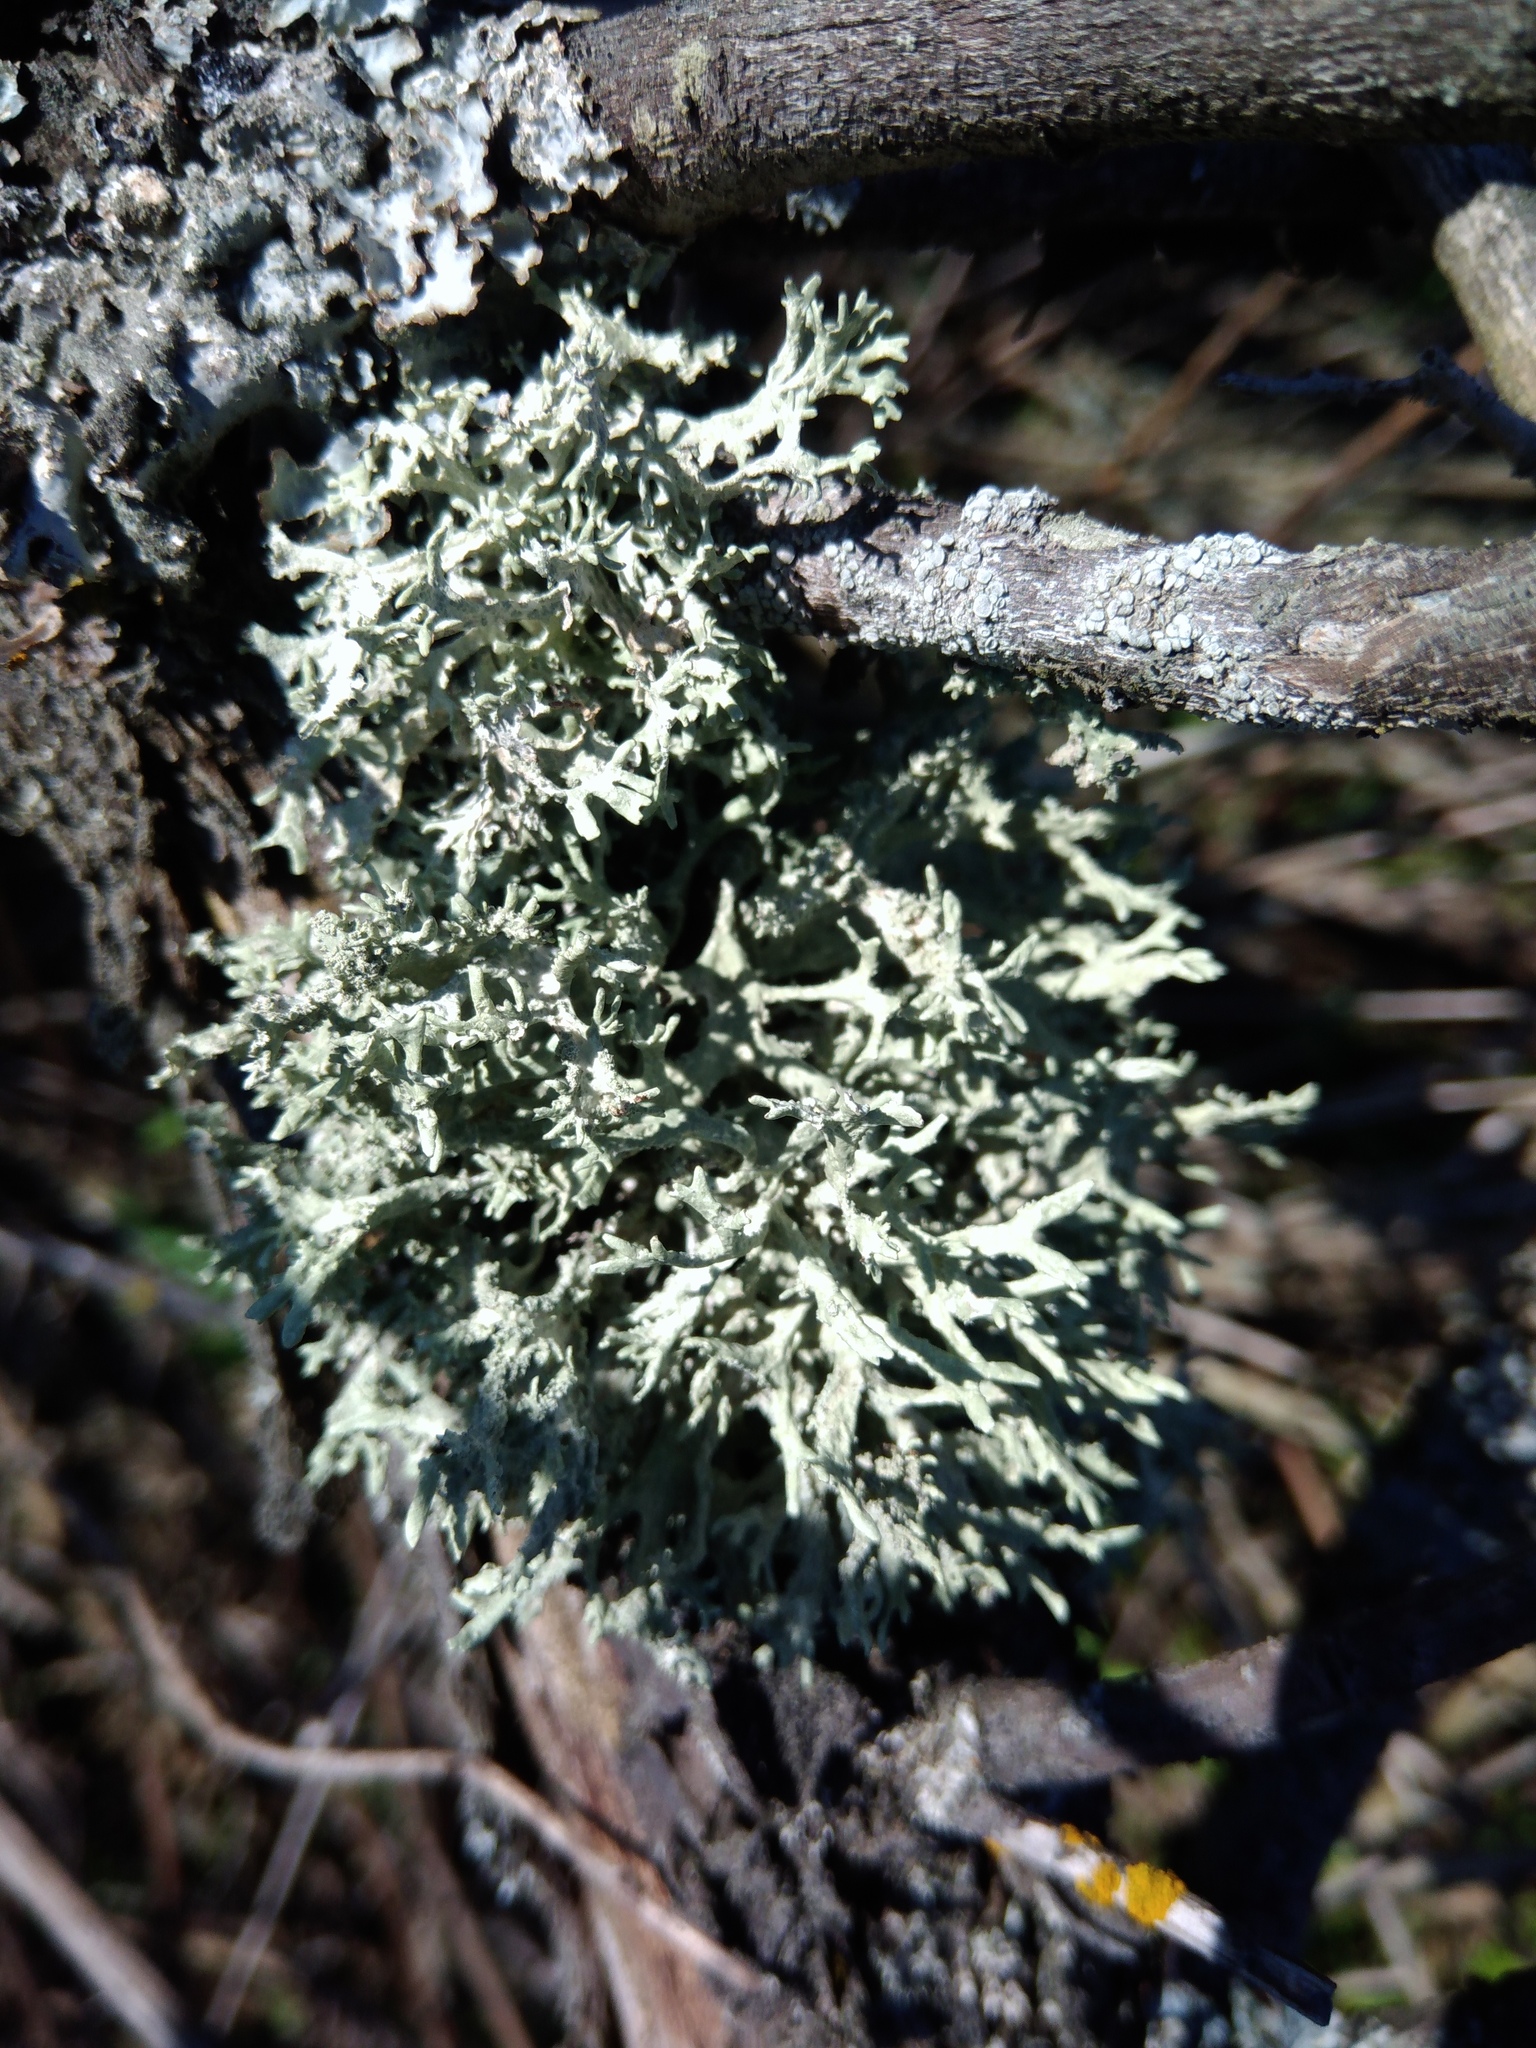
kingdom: Fungi
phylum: Ascomycota
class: Lecanoromycetes
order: Lecanorales
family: Parmeliaceae
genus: Evernia
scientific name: Evernia prunastri
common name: Oak moss
